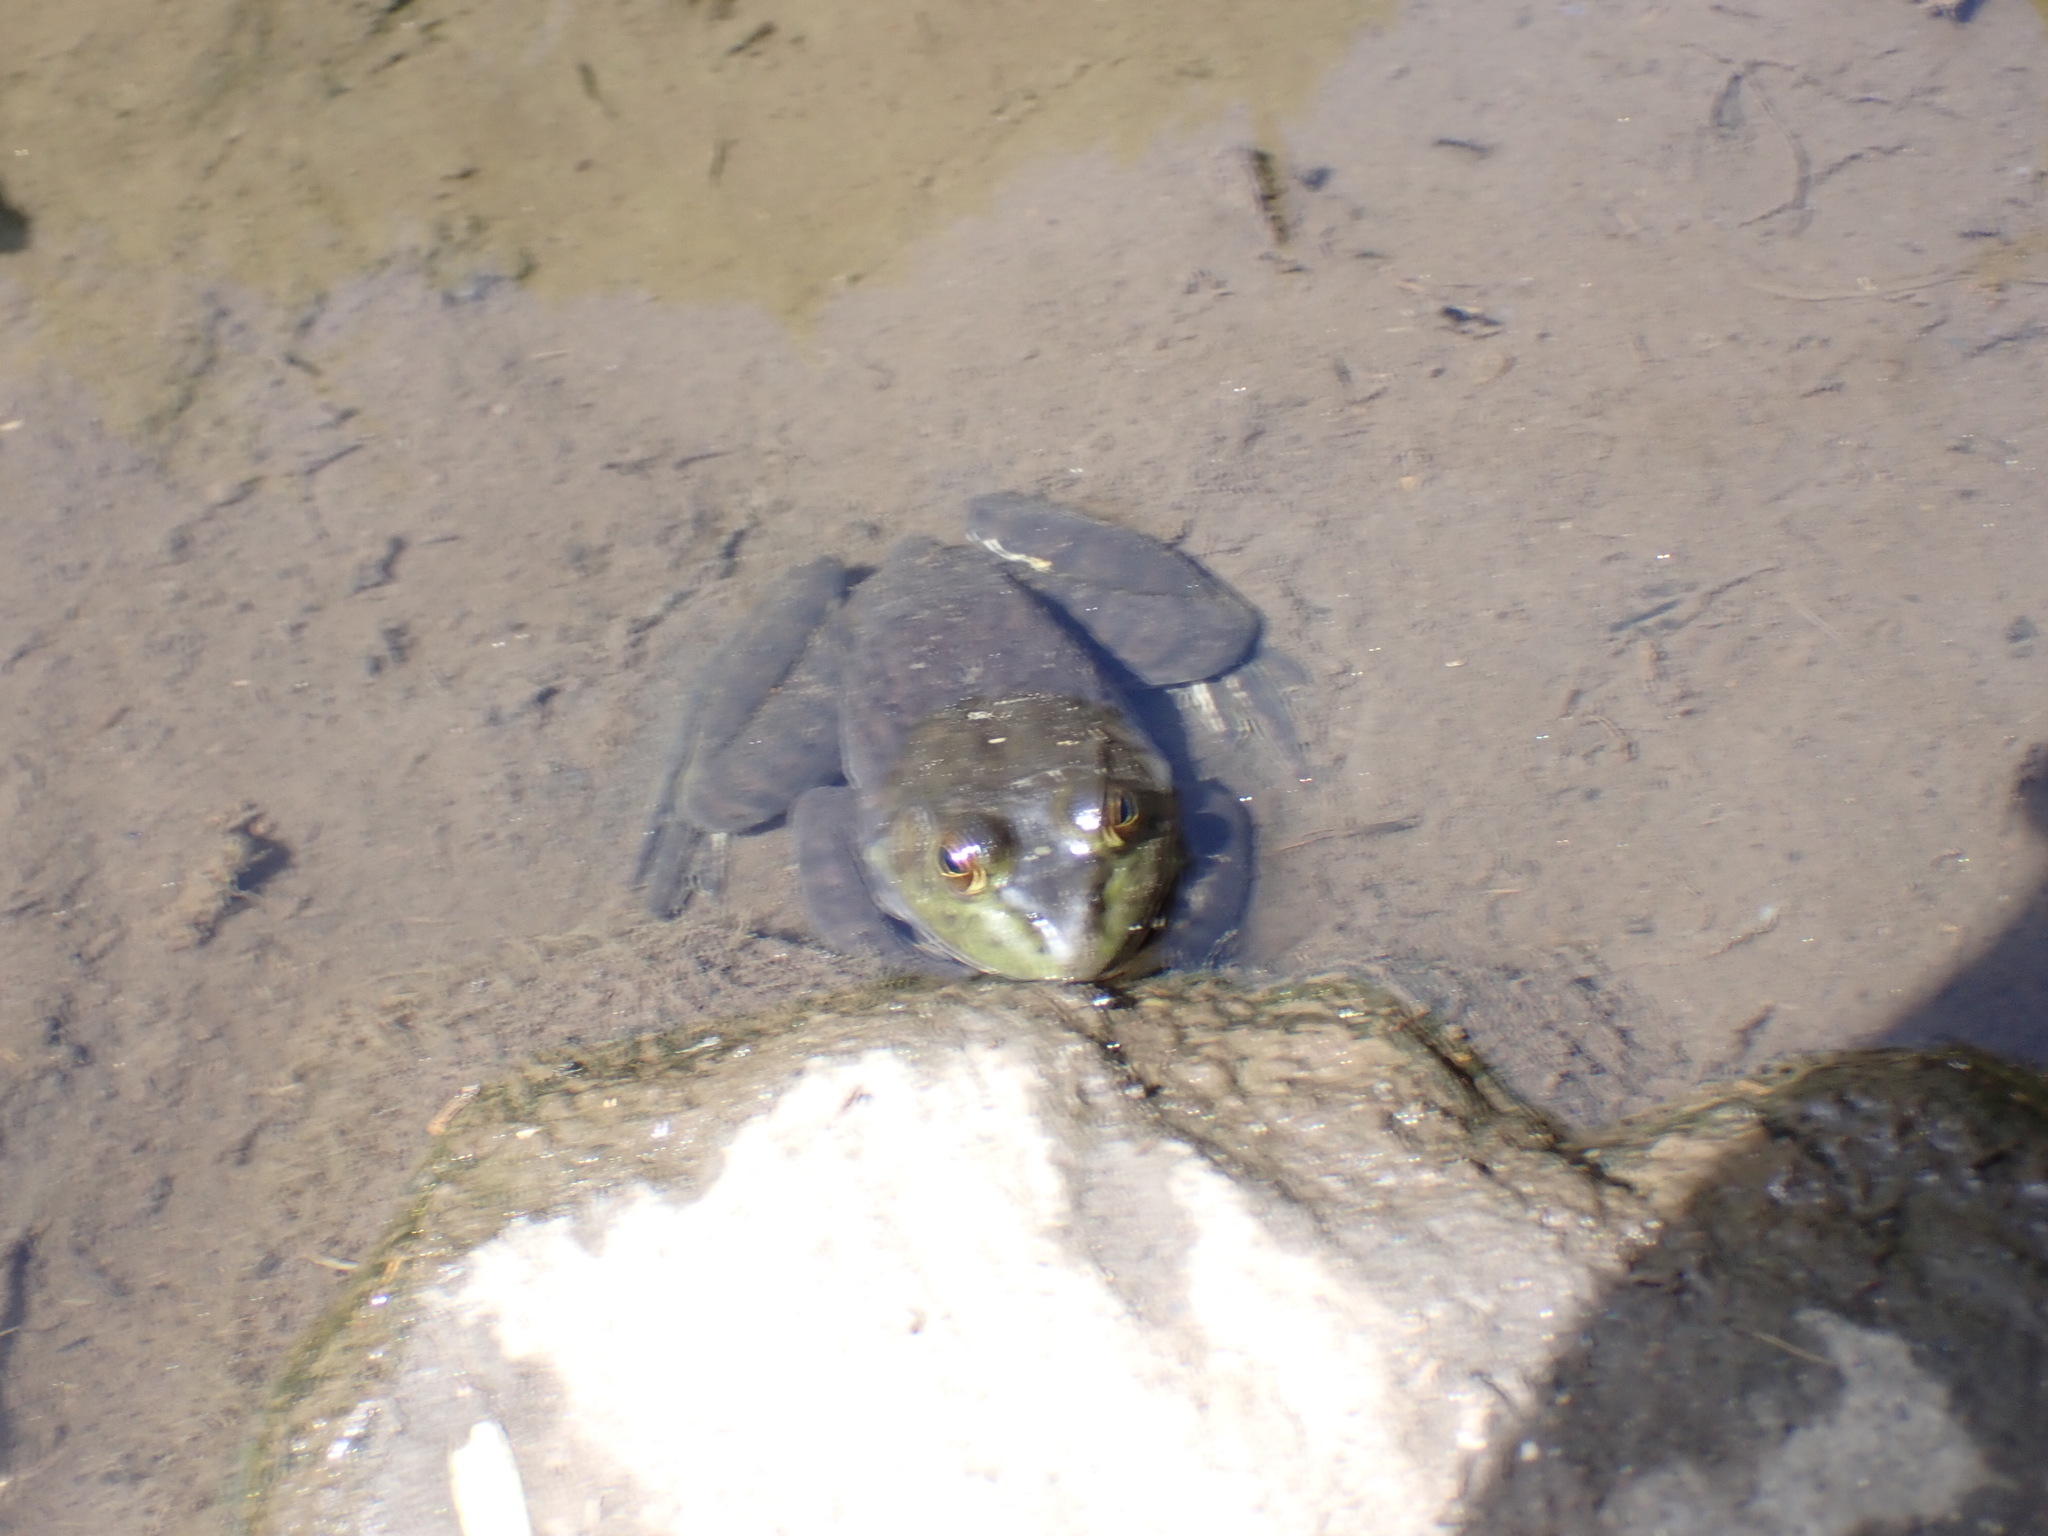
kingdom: Animalia
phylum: Chordata
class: Amphibia
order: Anura
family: Ranidae
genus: Lithobates
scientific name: Lithobates catesbeianus
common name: American bullfrog
